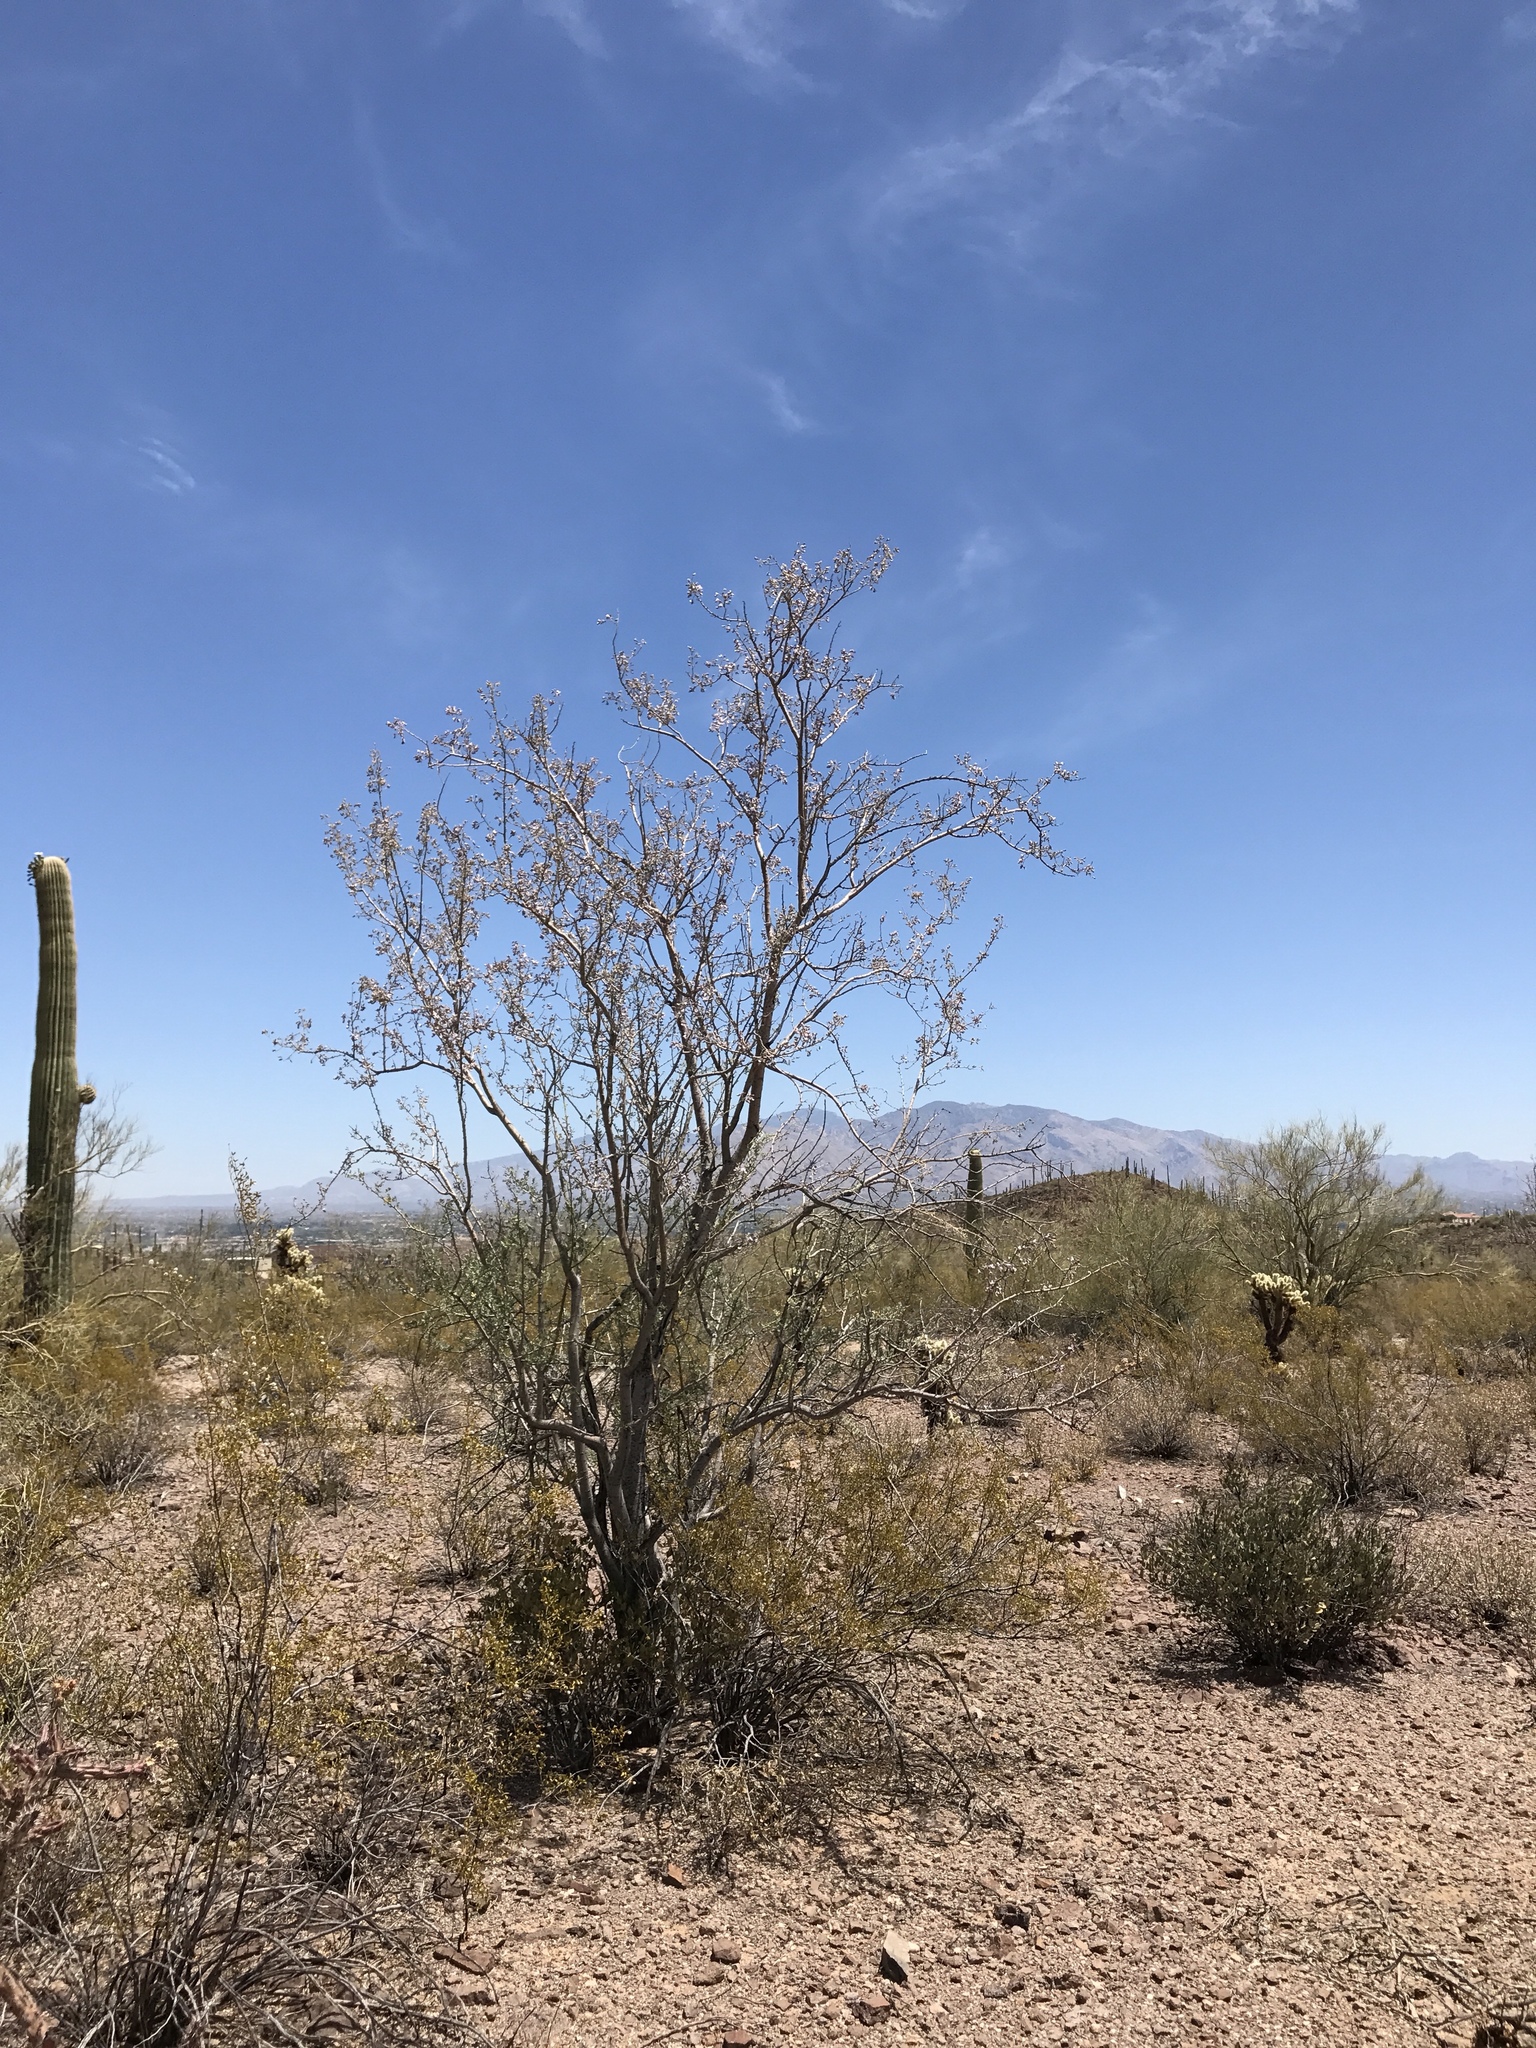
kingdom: Plantae
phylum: Tracheophyta
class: Magnoliopsida
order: Fabales
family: Fabaceae
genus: Olneya
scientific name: Olneya tesota
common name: Desert ironwood
